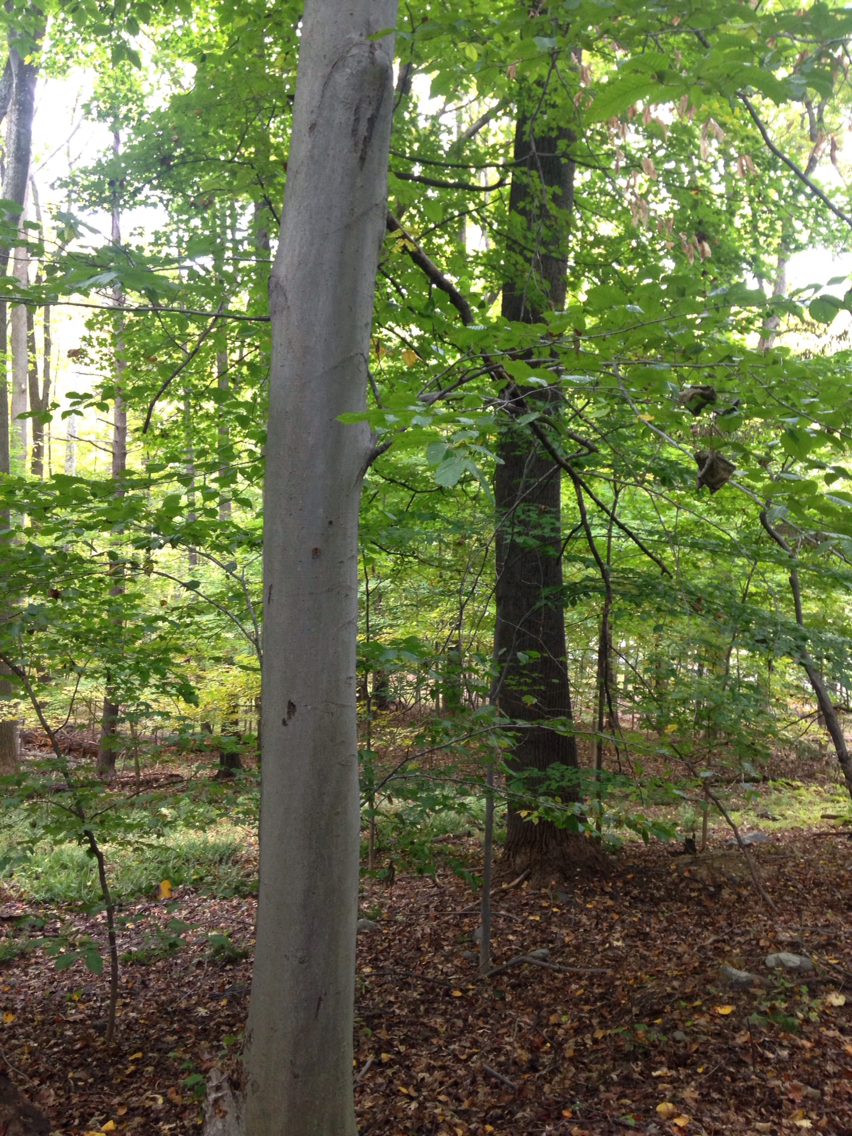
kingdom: Plantae
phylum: Tracheophyta
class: Magnoliopsida
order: Fagales
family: Fagaceae
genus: Fagus
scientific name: Fagus grandifolia
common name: American beech
